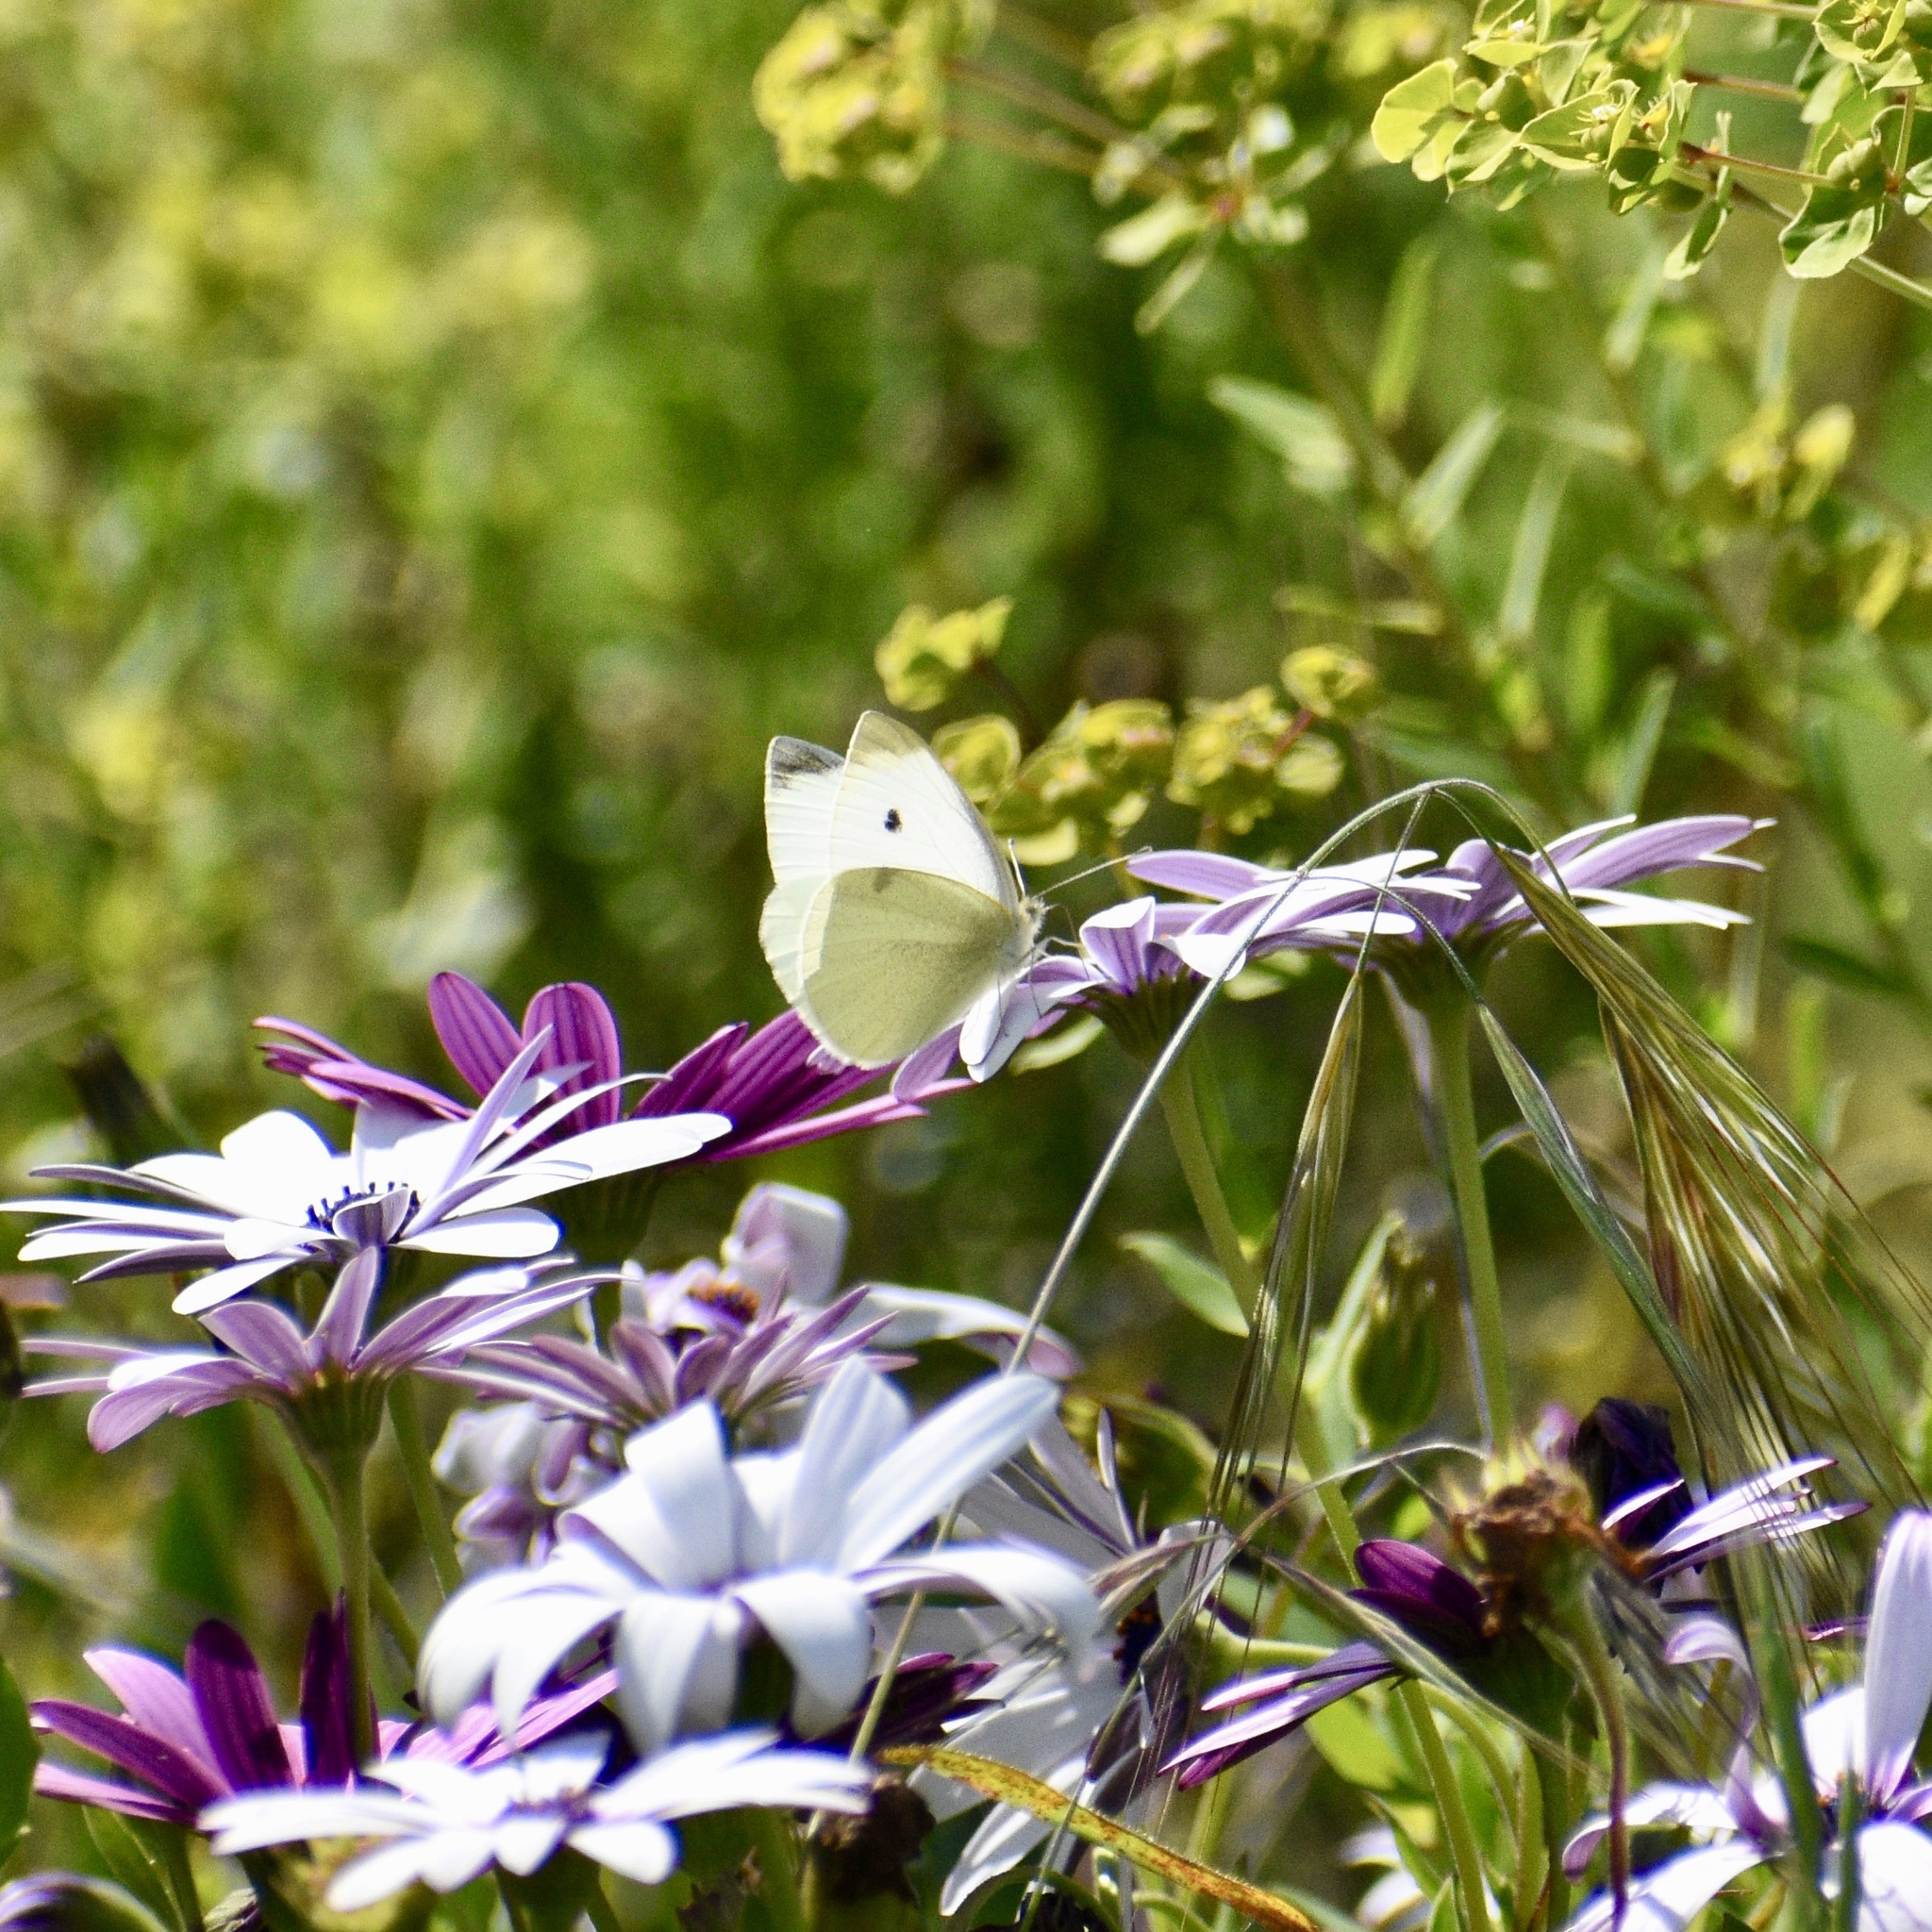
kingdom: Animalia
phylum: Arthropoda
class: Insecta
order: Lepidoptera
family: Pieridae
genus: Pieris
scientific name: Pieris rapae
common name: Small white
